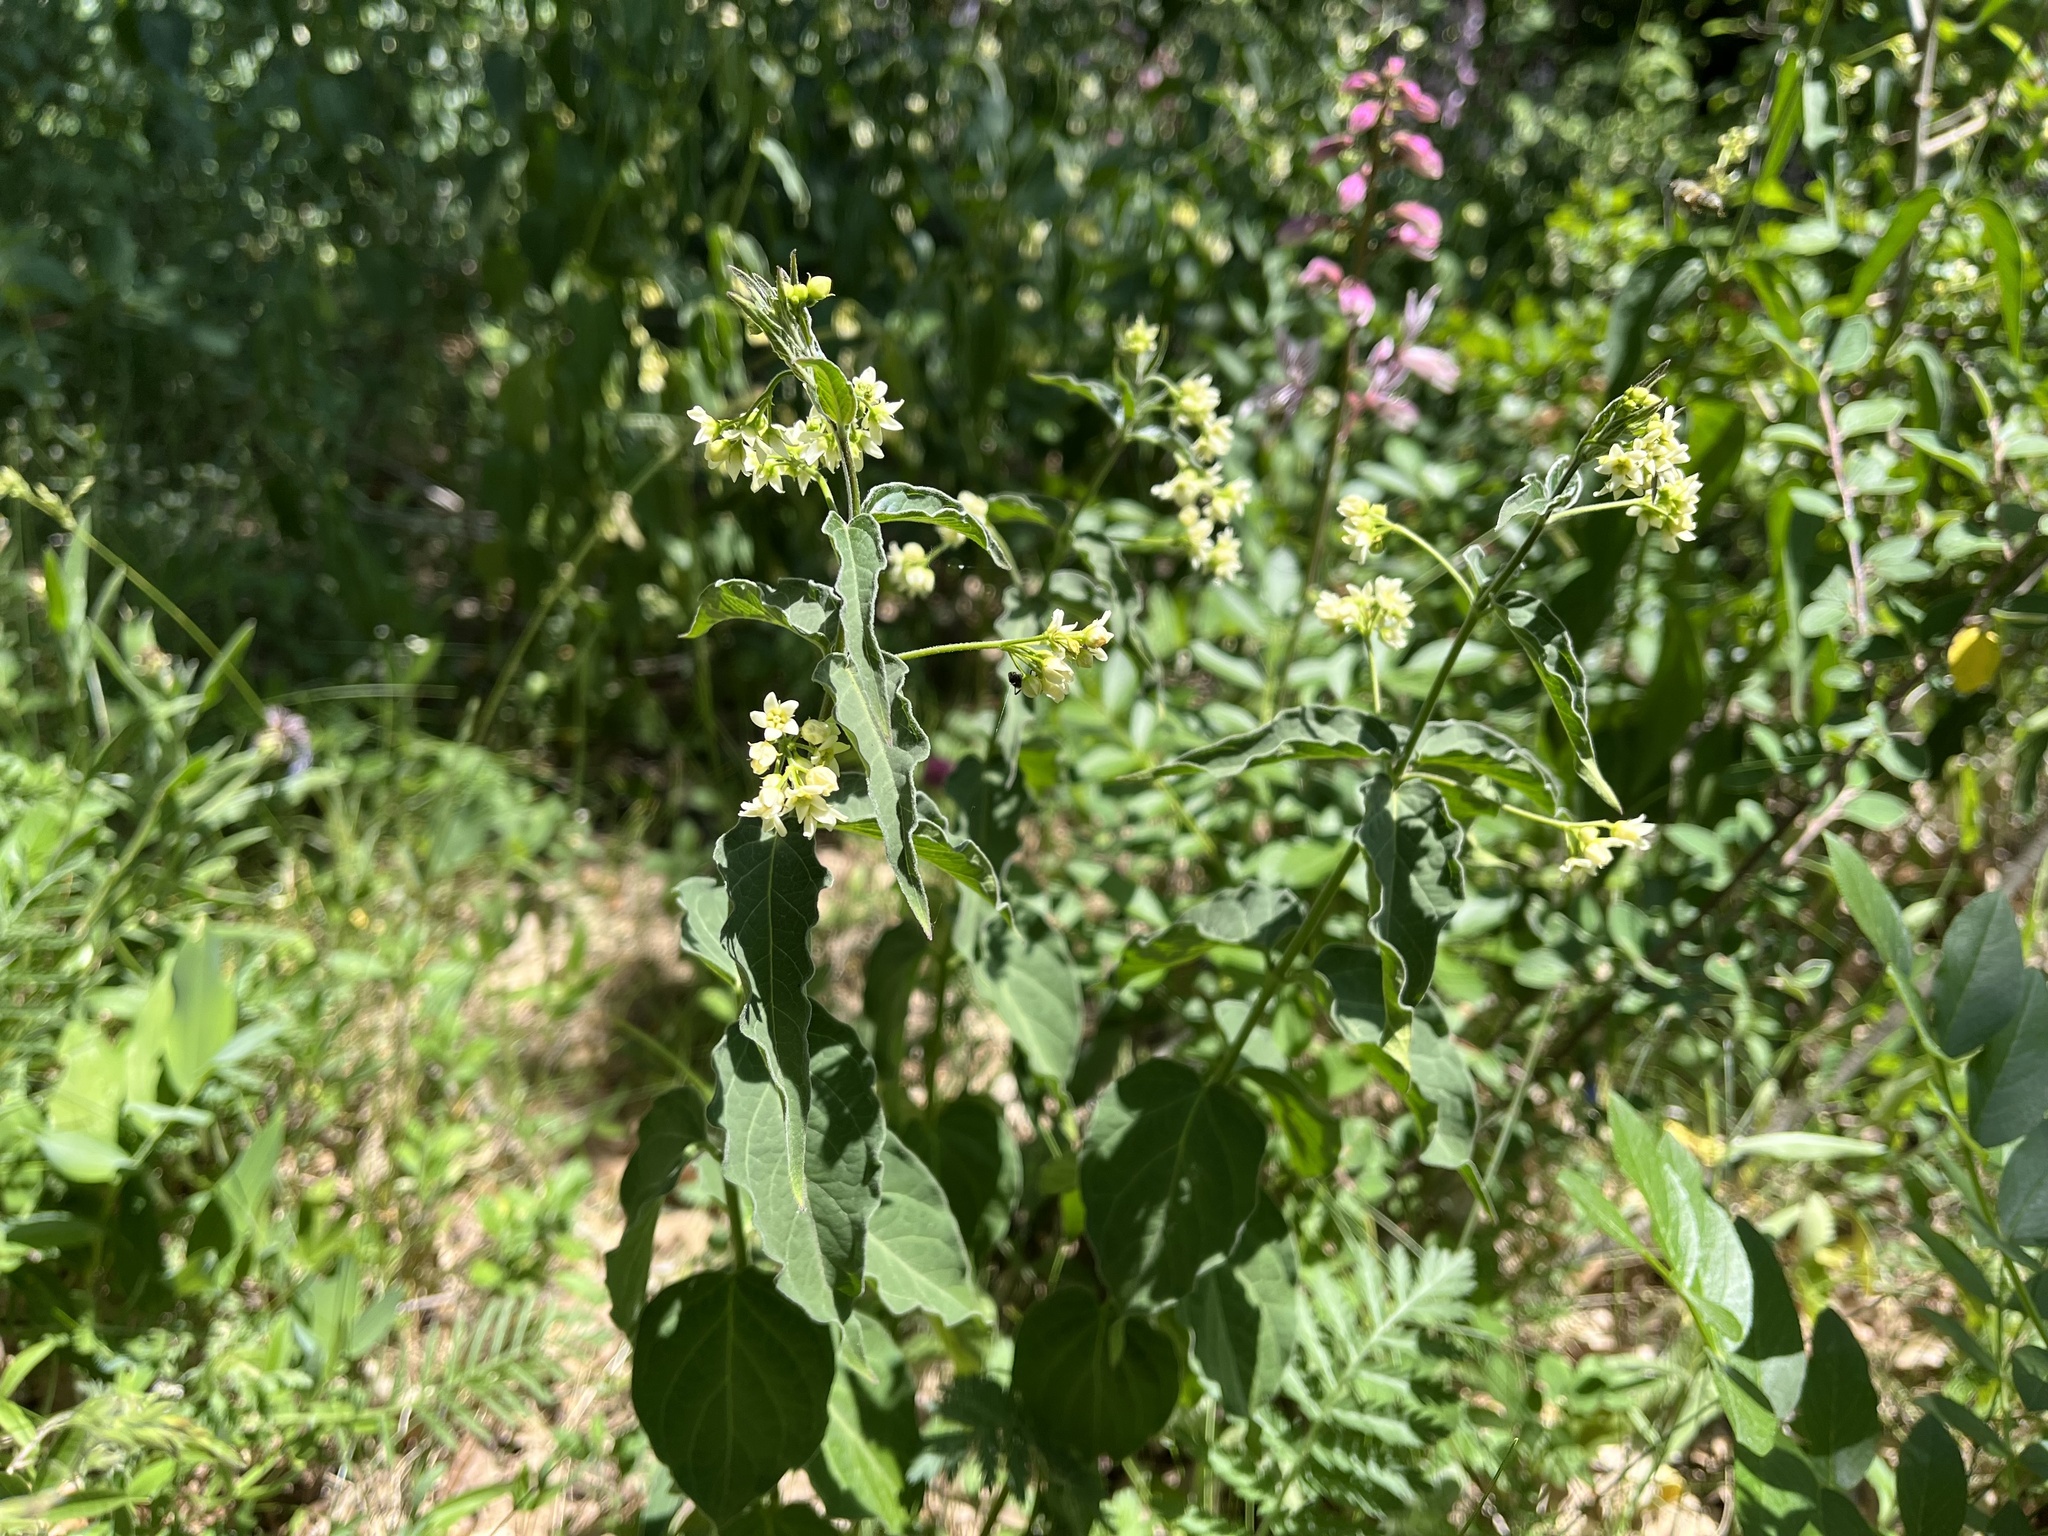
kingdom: Plantae
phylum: Tracheophyta
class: Magnoliopsida
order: Gentianales
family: Apocynaceae
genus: Vincetoxicum
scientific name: Vincetoxicum hirundinaria
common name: White swallowwort
